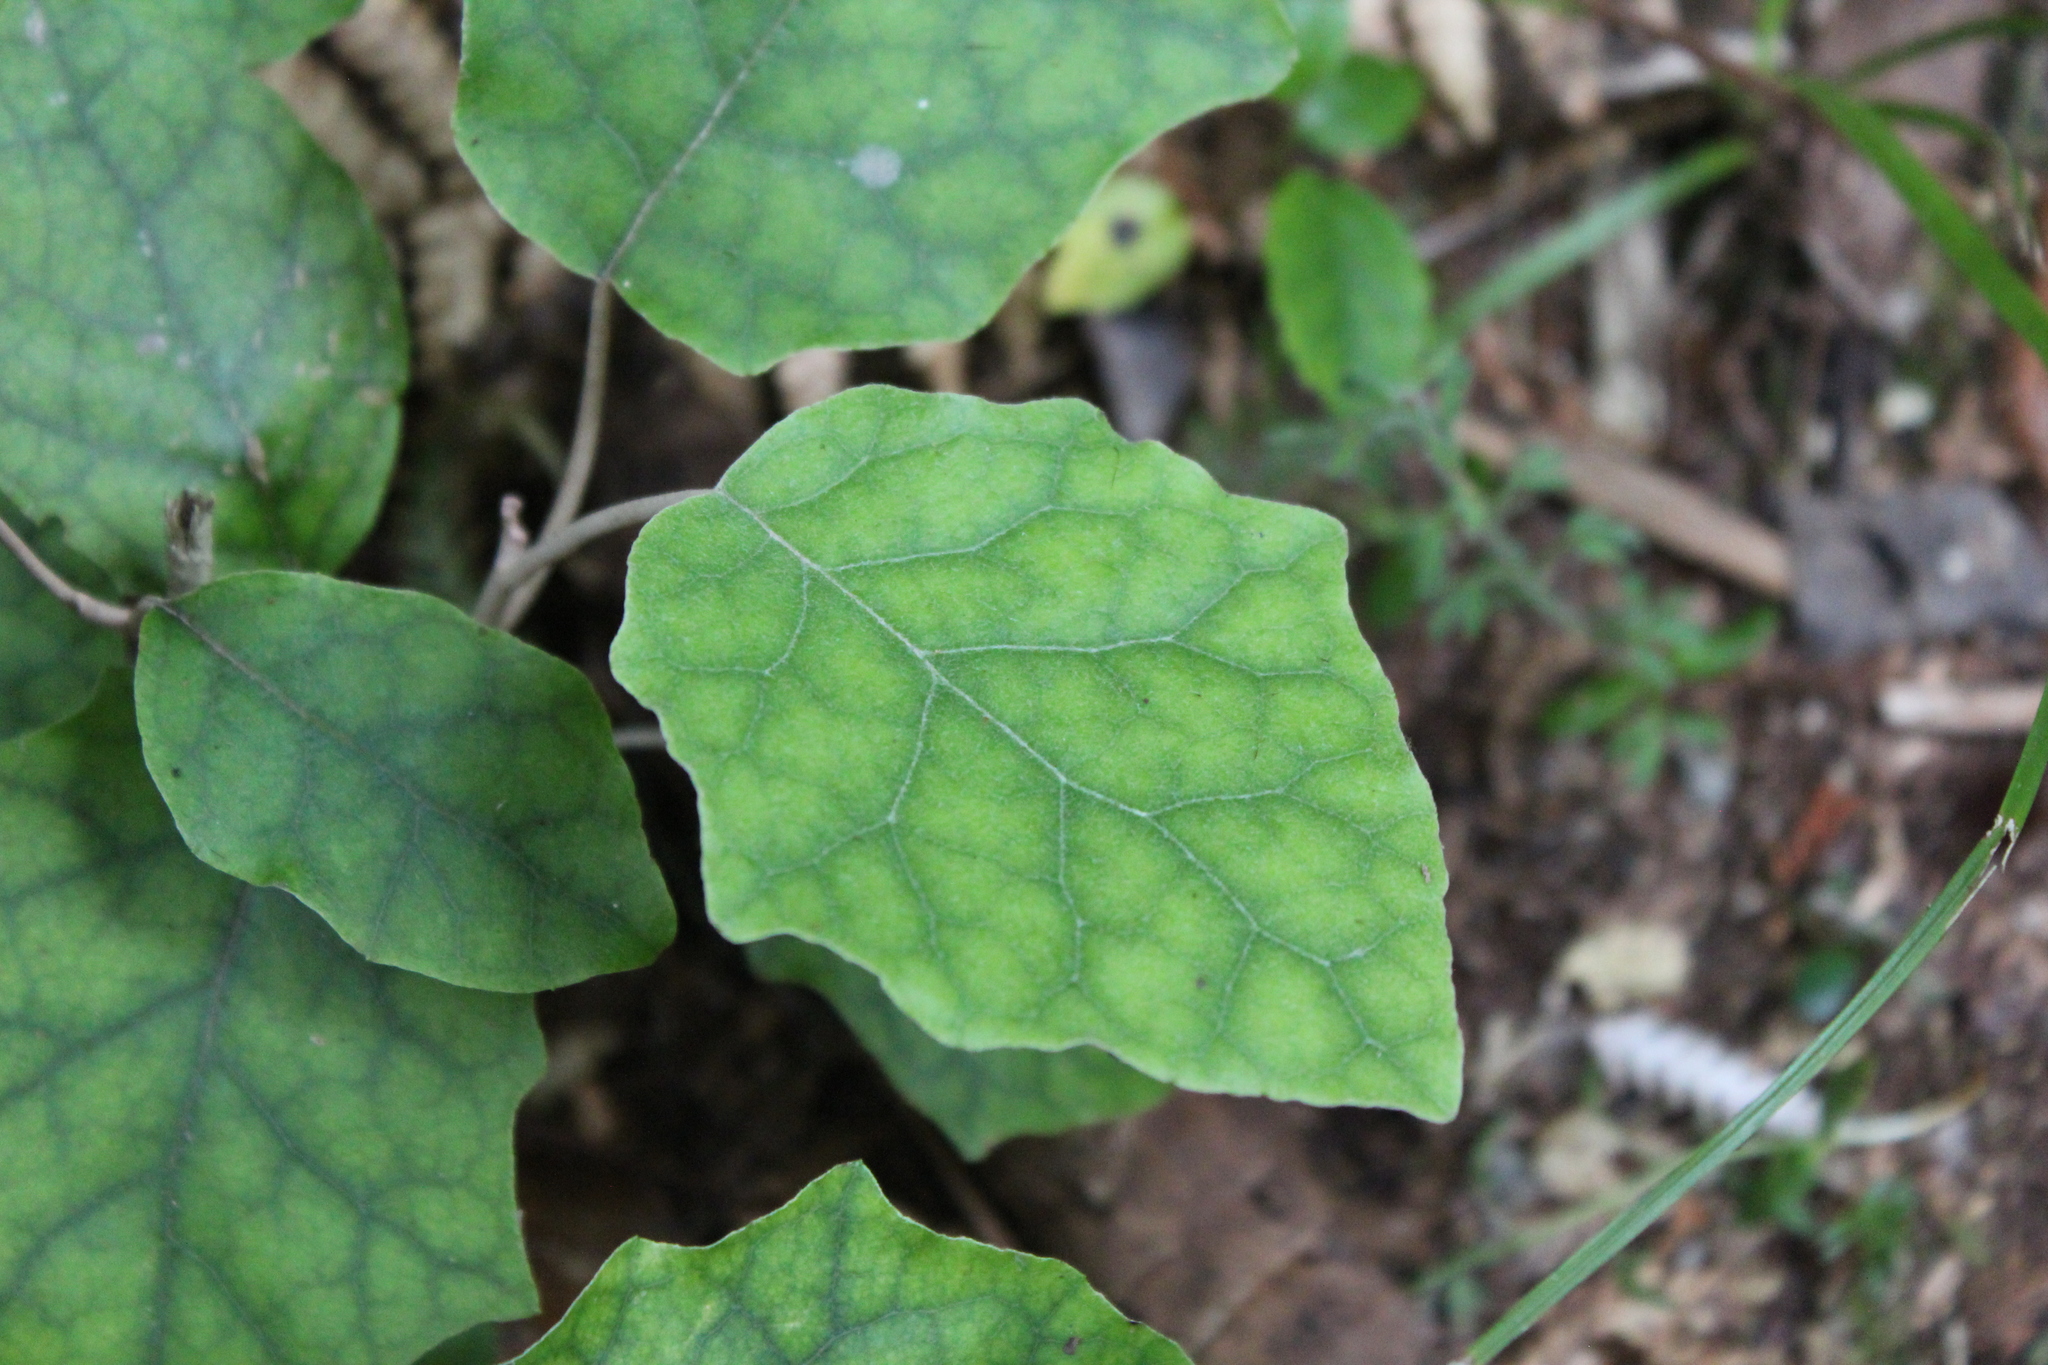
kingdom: Plantae
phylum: Tracheophyta
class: Magnoliopsida
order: Asterales
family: Asteraceae
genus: Brachyglottis
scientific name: Brachyglottis repanda
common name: Hedge ragwort
